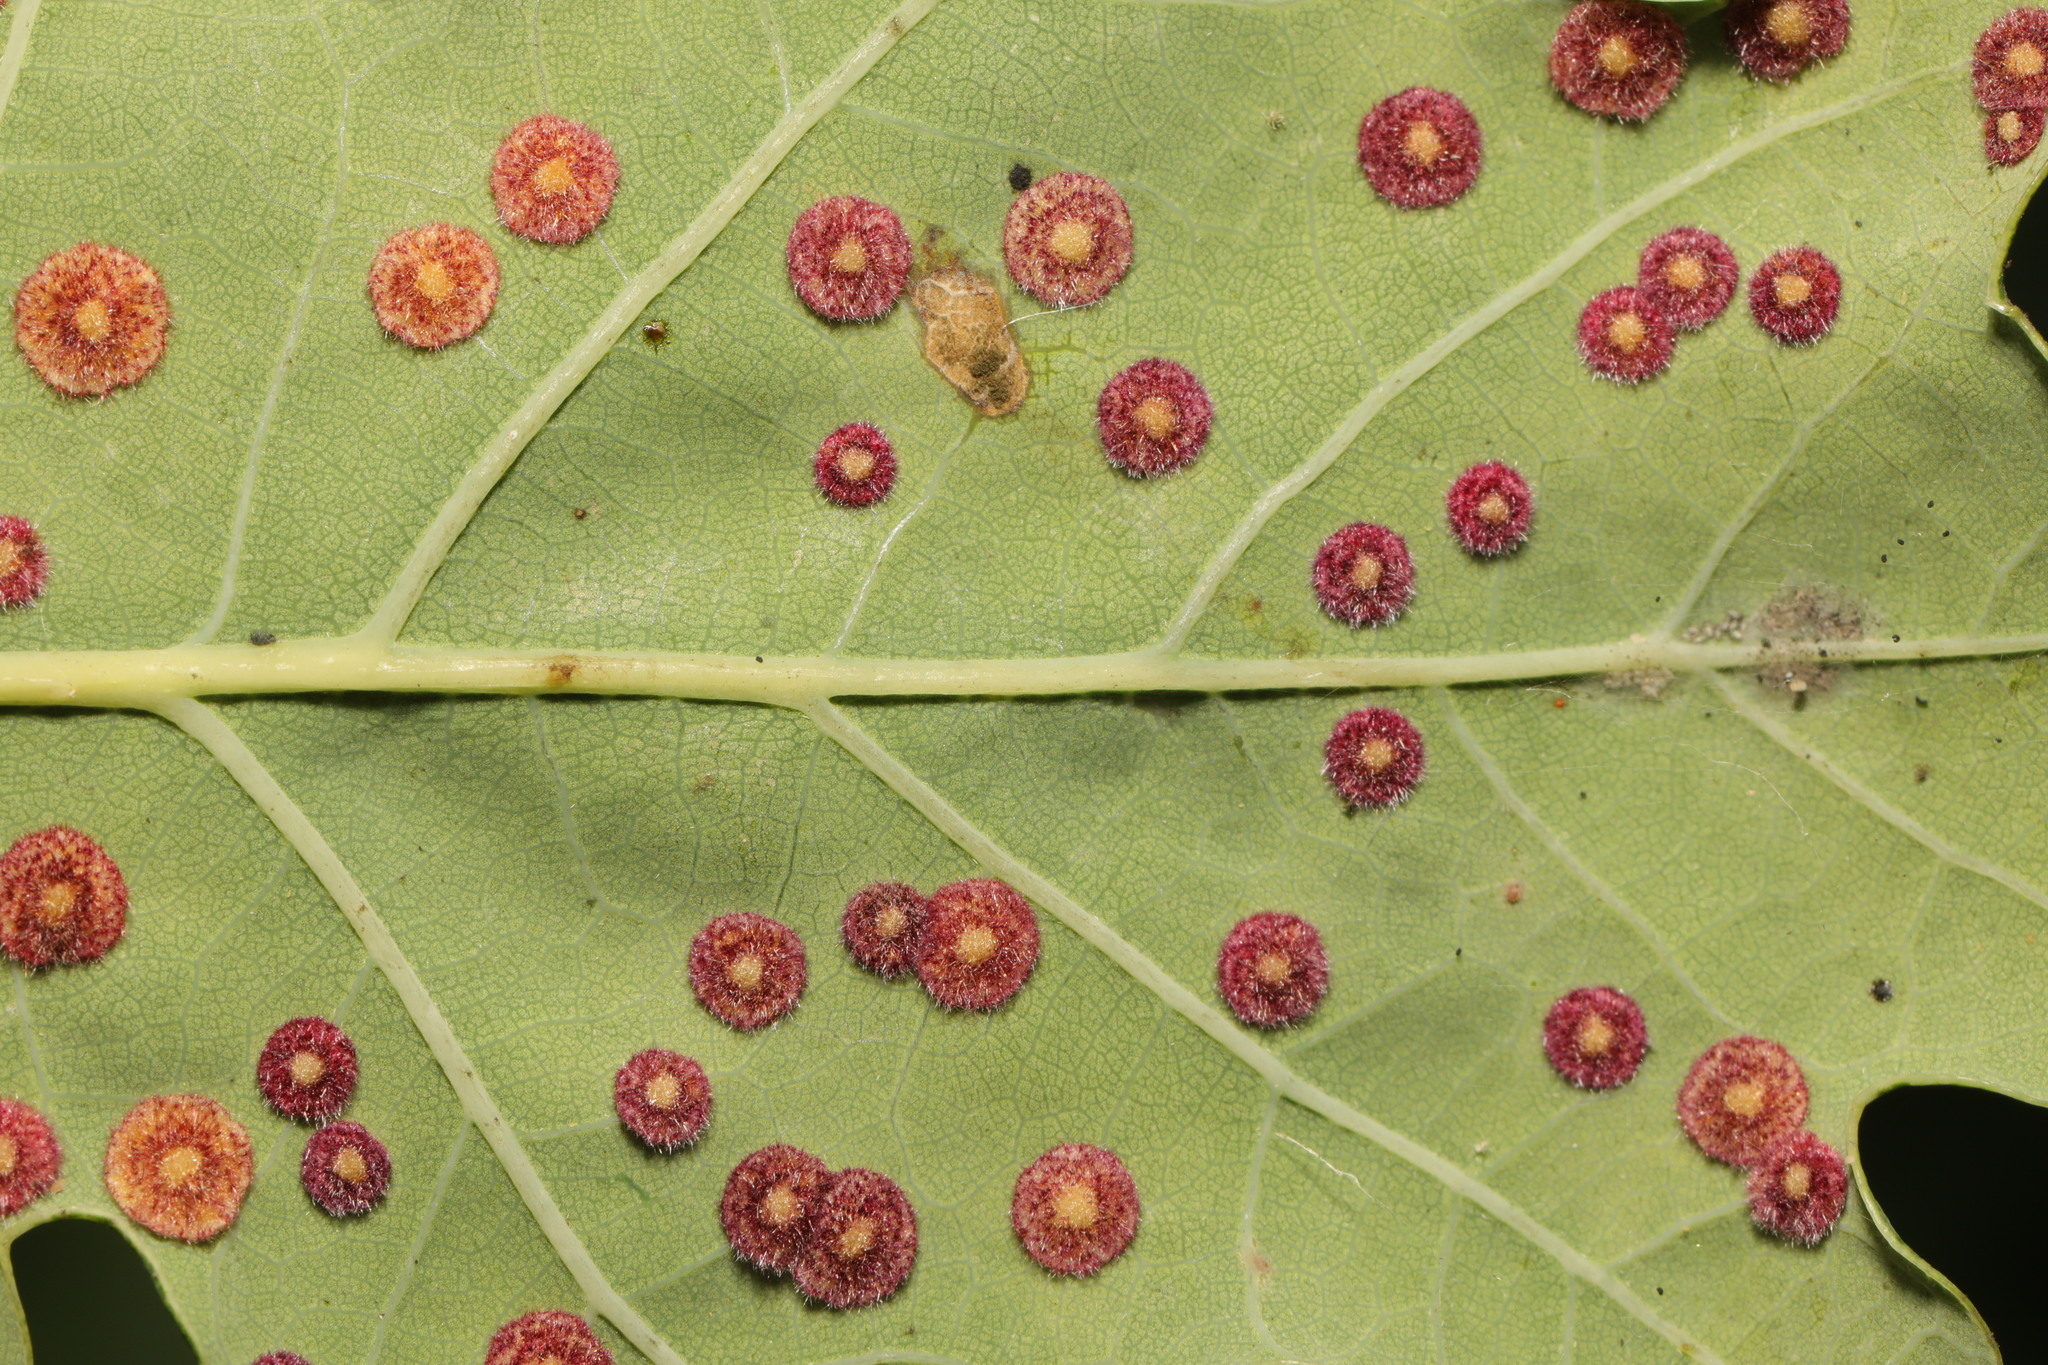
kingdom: Animalia
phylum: Arthropoda
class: Insecta
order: Hymenoptera
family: Cynipidae
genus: Neuroterus
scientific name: Neuroterus quercusbaccarum
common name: Common spangle gall
